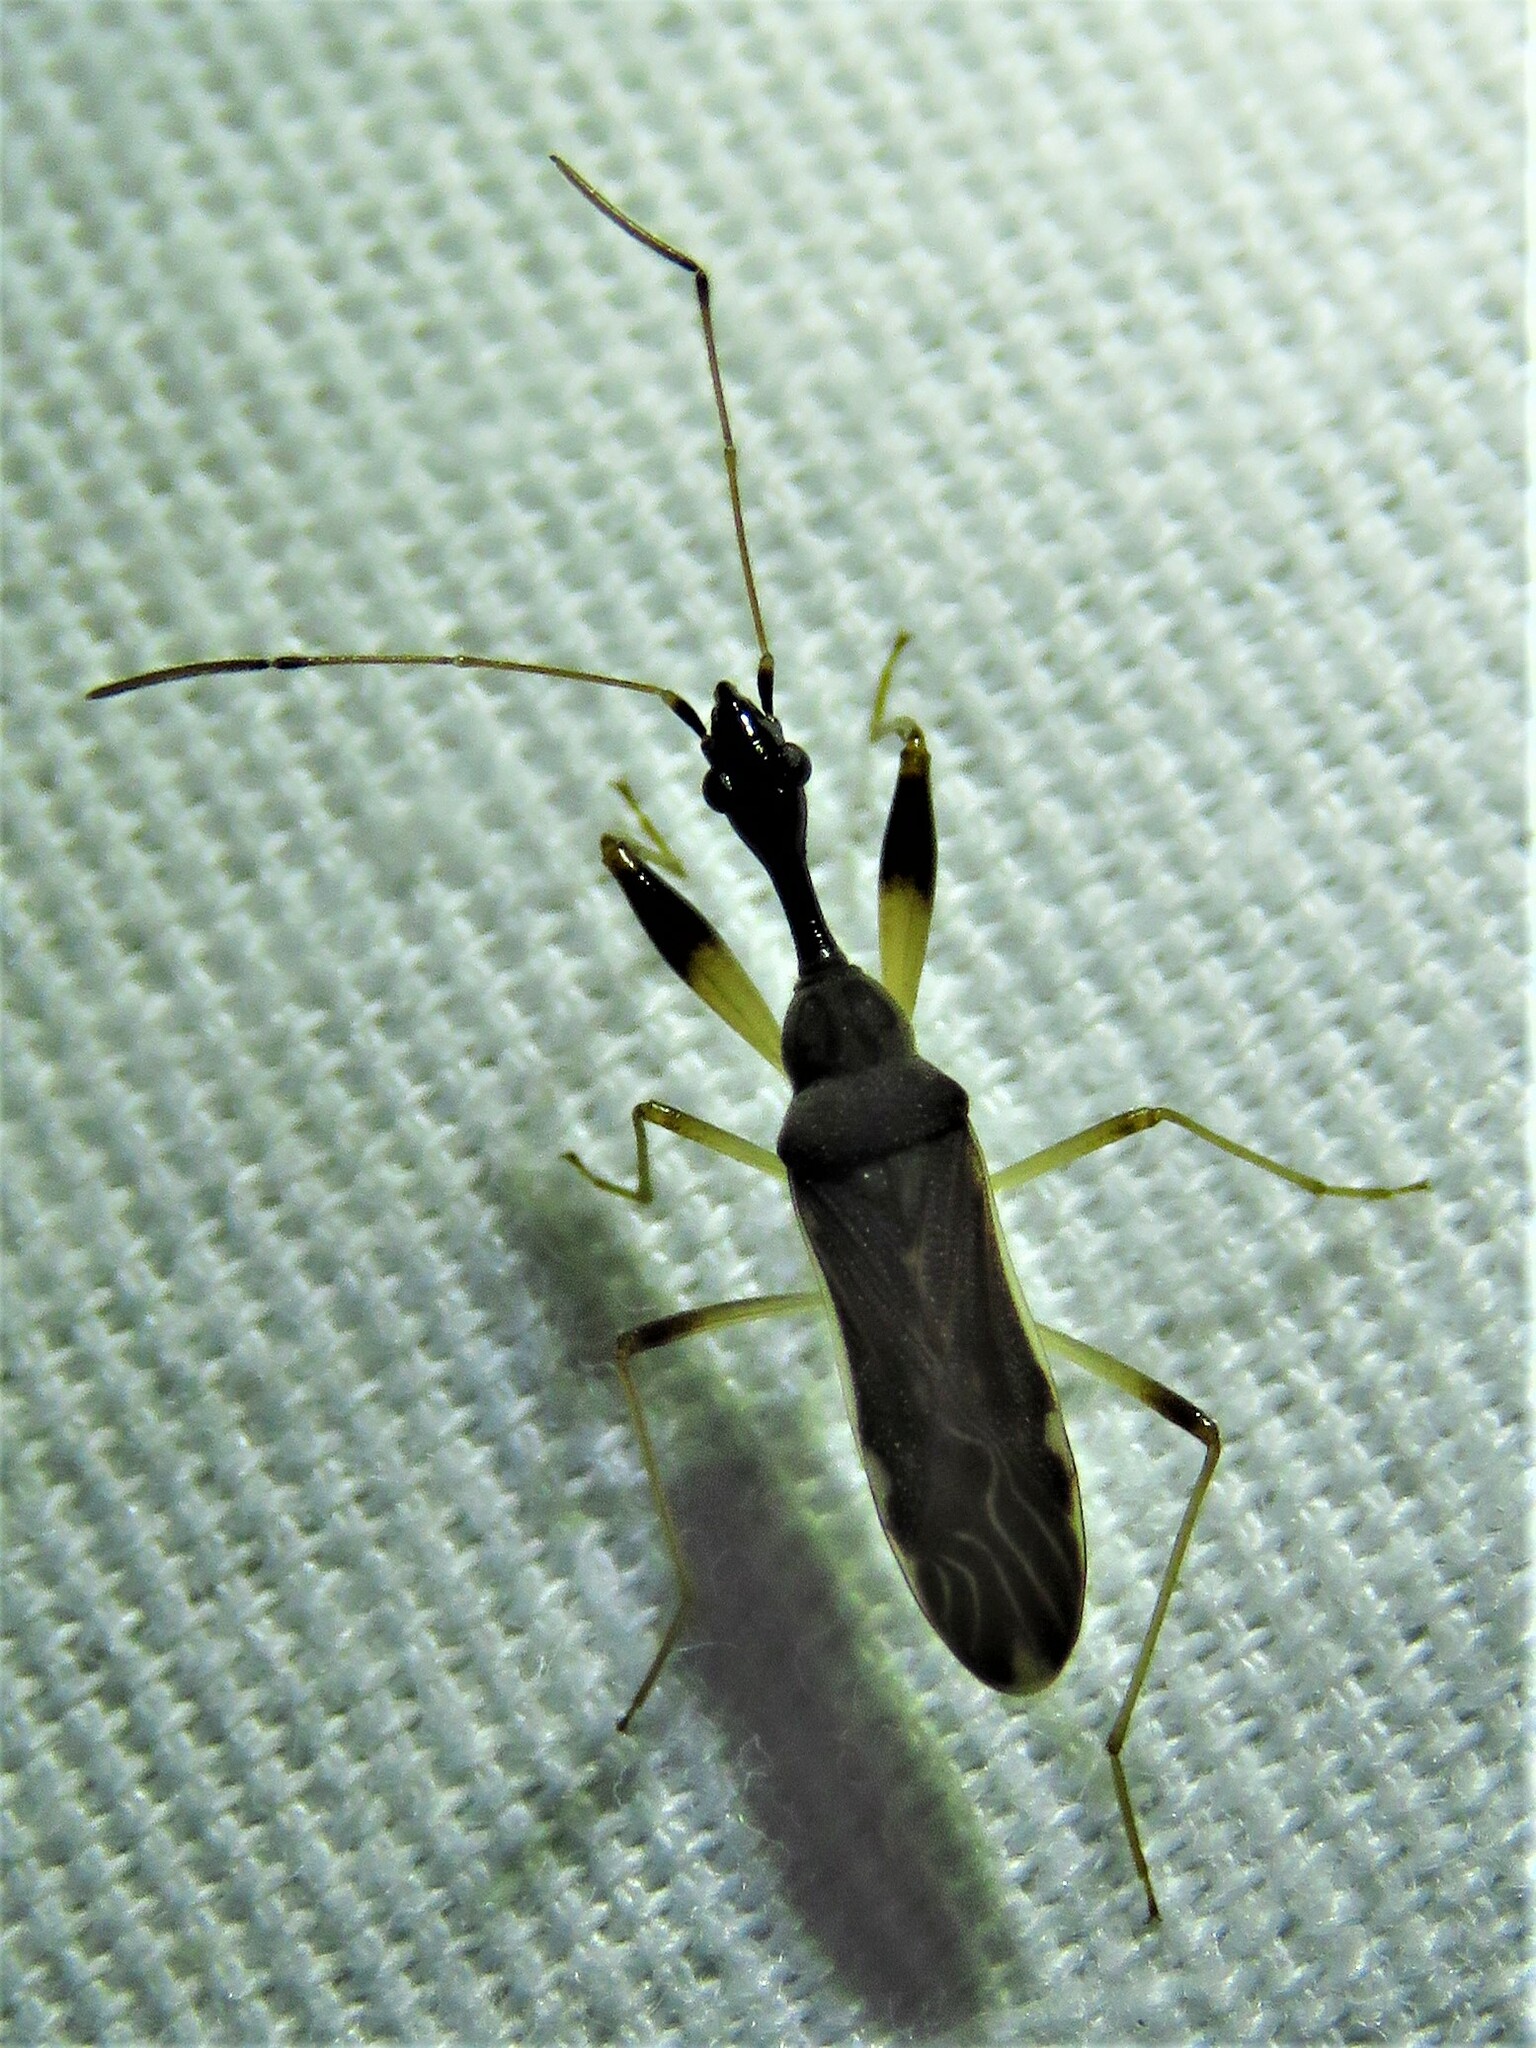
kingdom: Animalia
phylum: Arthropoda
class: Insecta
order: Hemiptera
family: Rhyparochromidae
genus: Myodocha
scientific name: Myodocha serripes
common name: Long-necked seed bug
